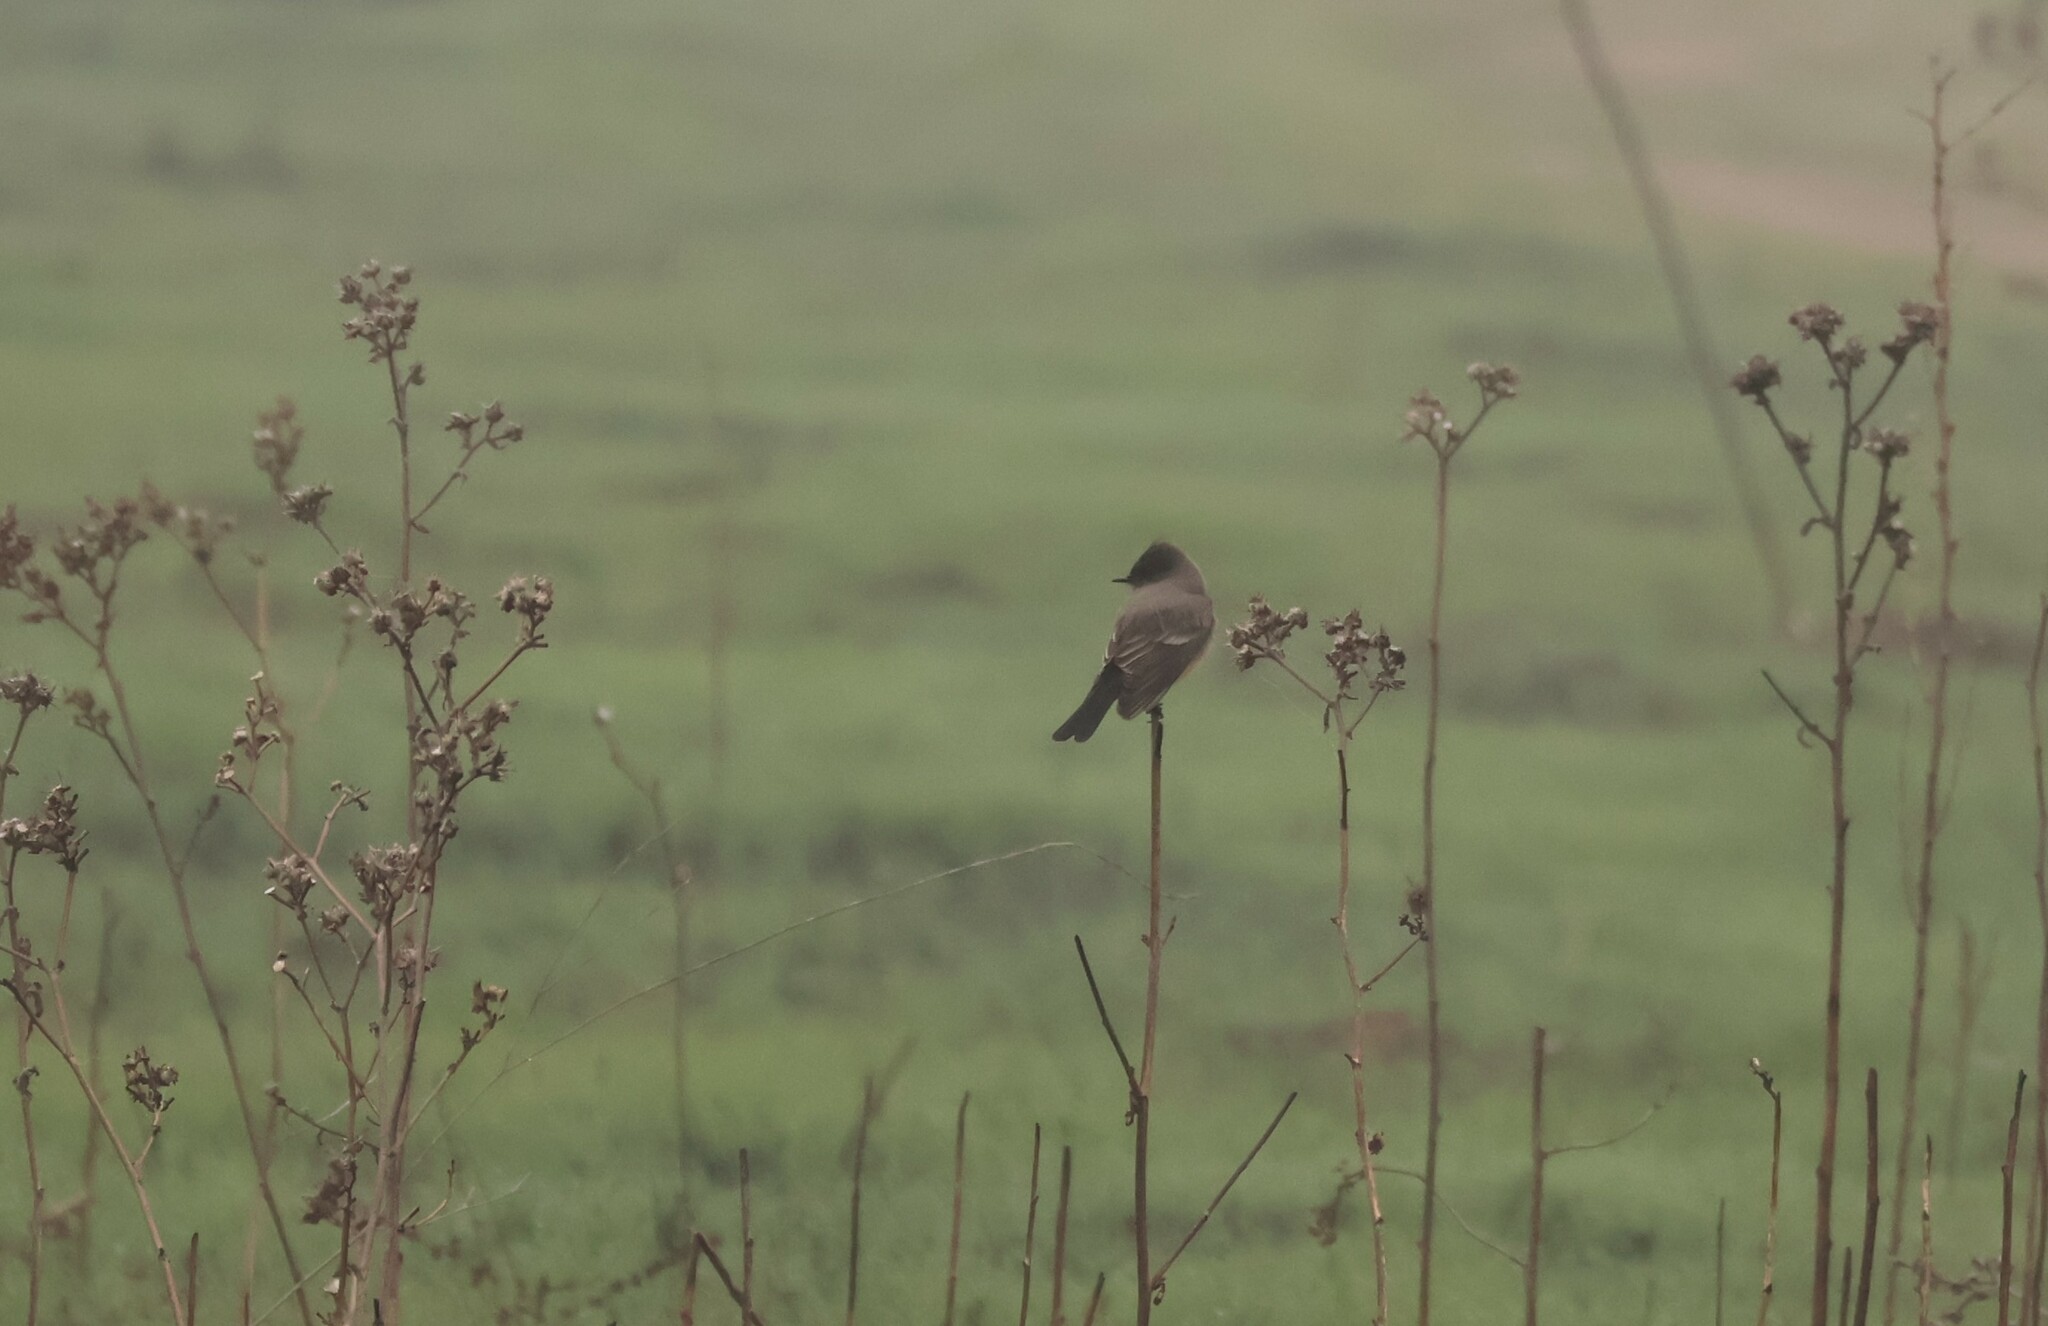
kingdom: Animalia
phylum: Chordata
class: Aves
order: Passeriformes
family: Tyrannidae
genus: Sayornis
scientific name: Sayornis saya
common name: Say's phoebe
